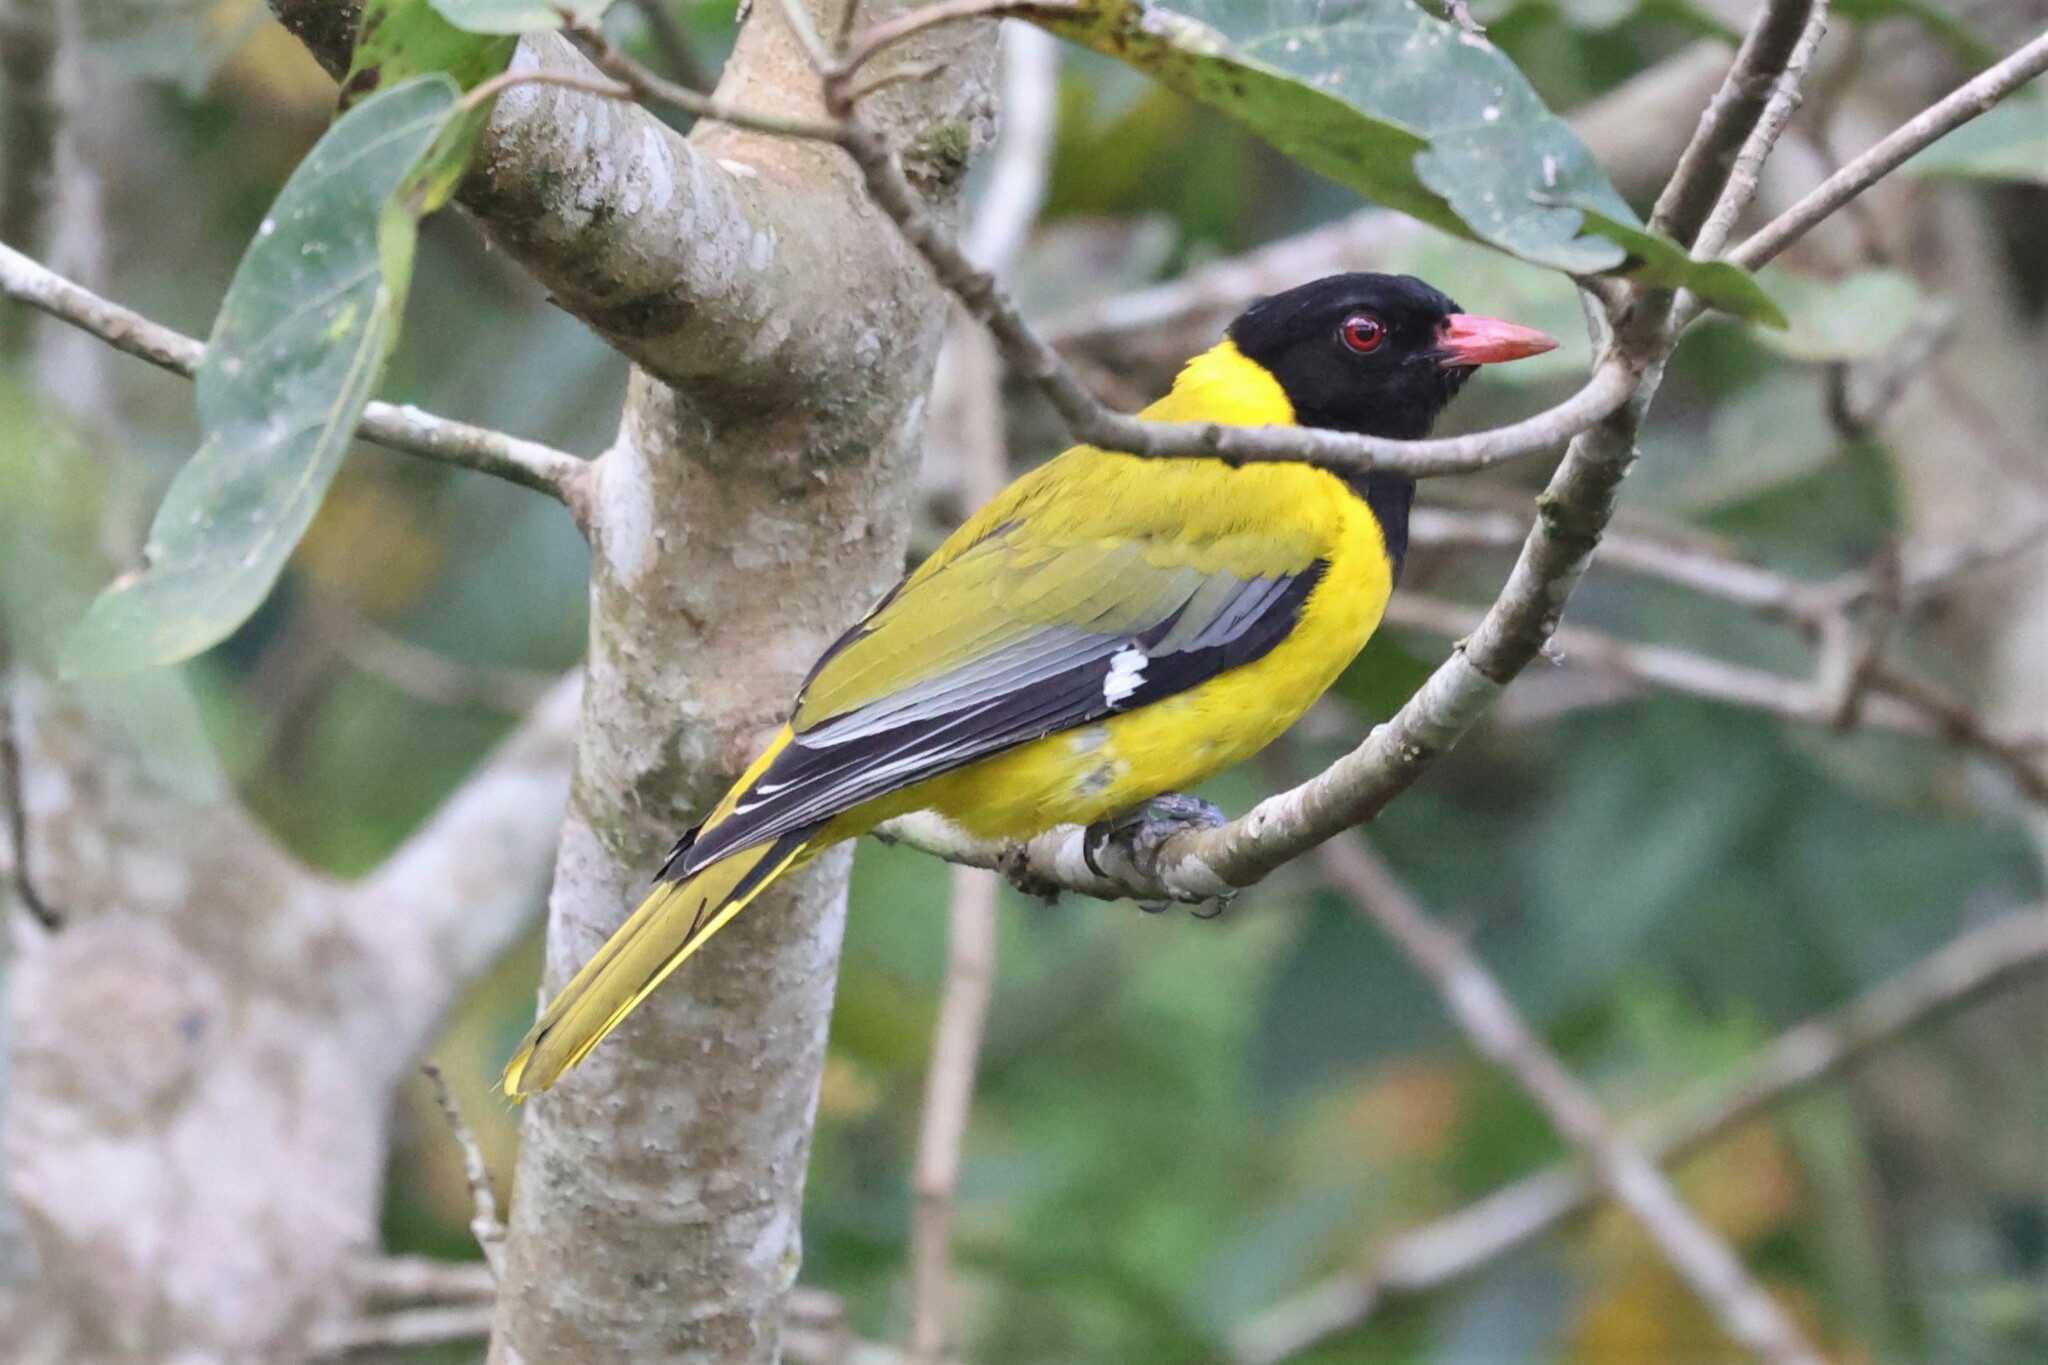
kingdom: Animalia
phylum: Chordata
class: Aves
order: Passeriformes
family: Oriolidae
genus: Oriolus
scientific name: Oriolus brachyrynchus
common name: Western oriole
